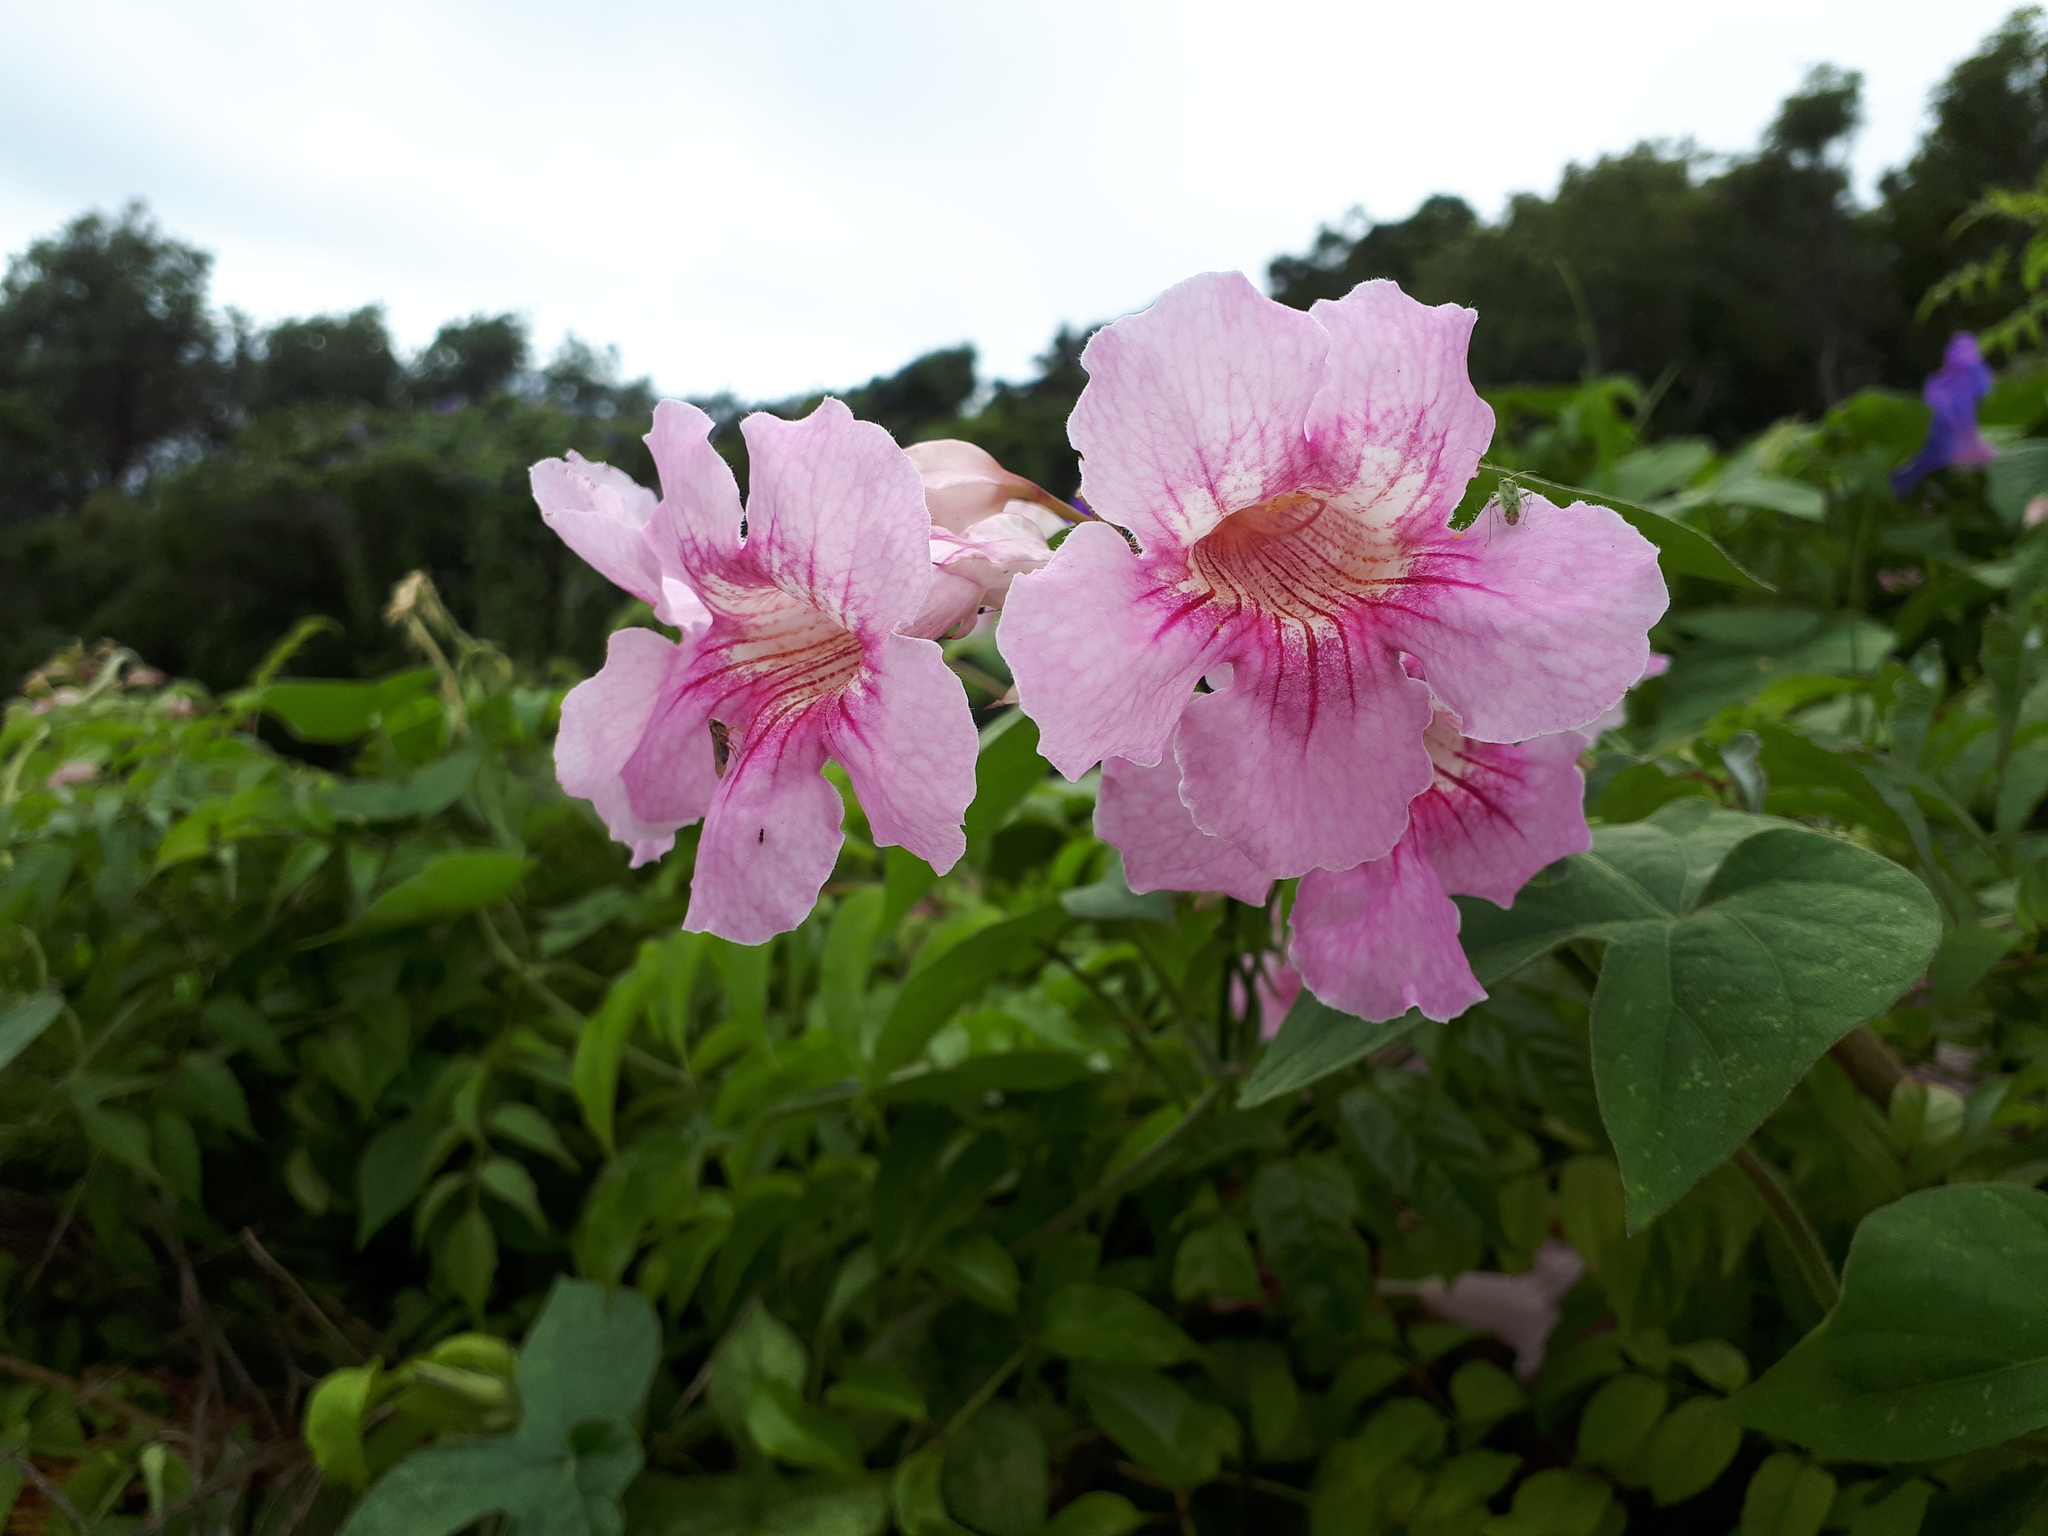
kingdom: Plantae
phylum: Tracheophyta
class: Magnoliopsida
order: Lamiales
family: Bignoniaceae
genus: Podranea
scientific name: Podranea ricasoliana
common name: Zimbabwe creeper
